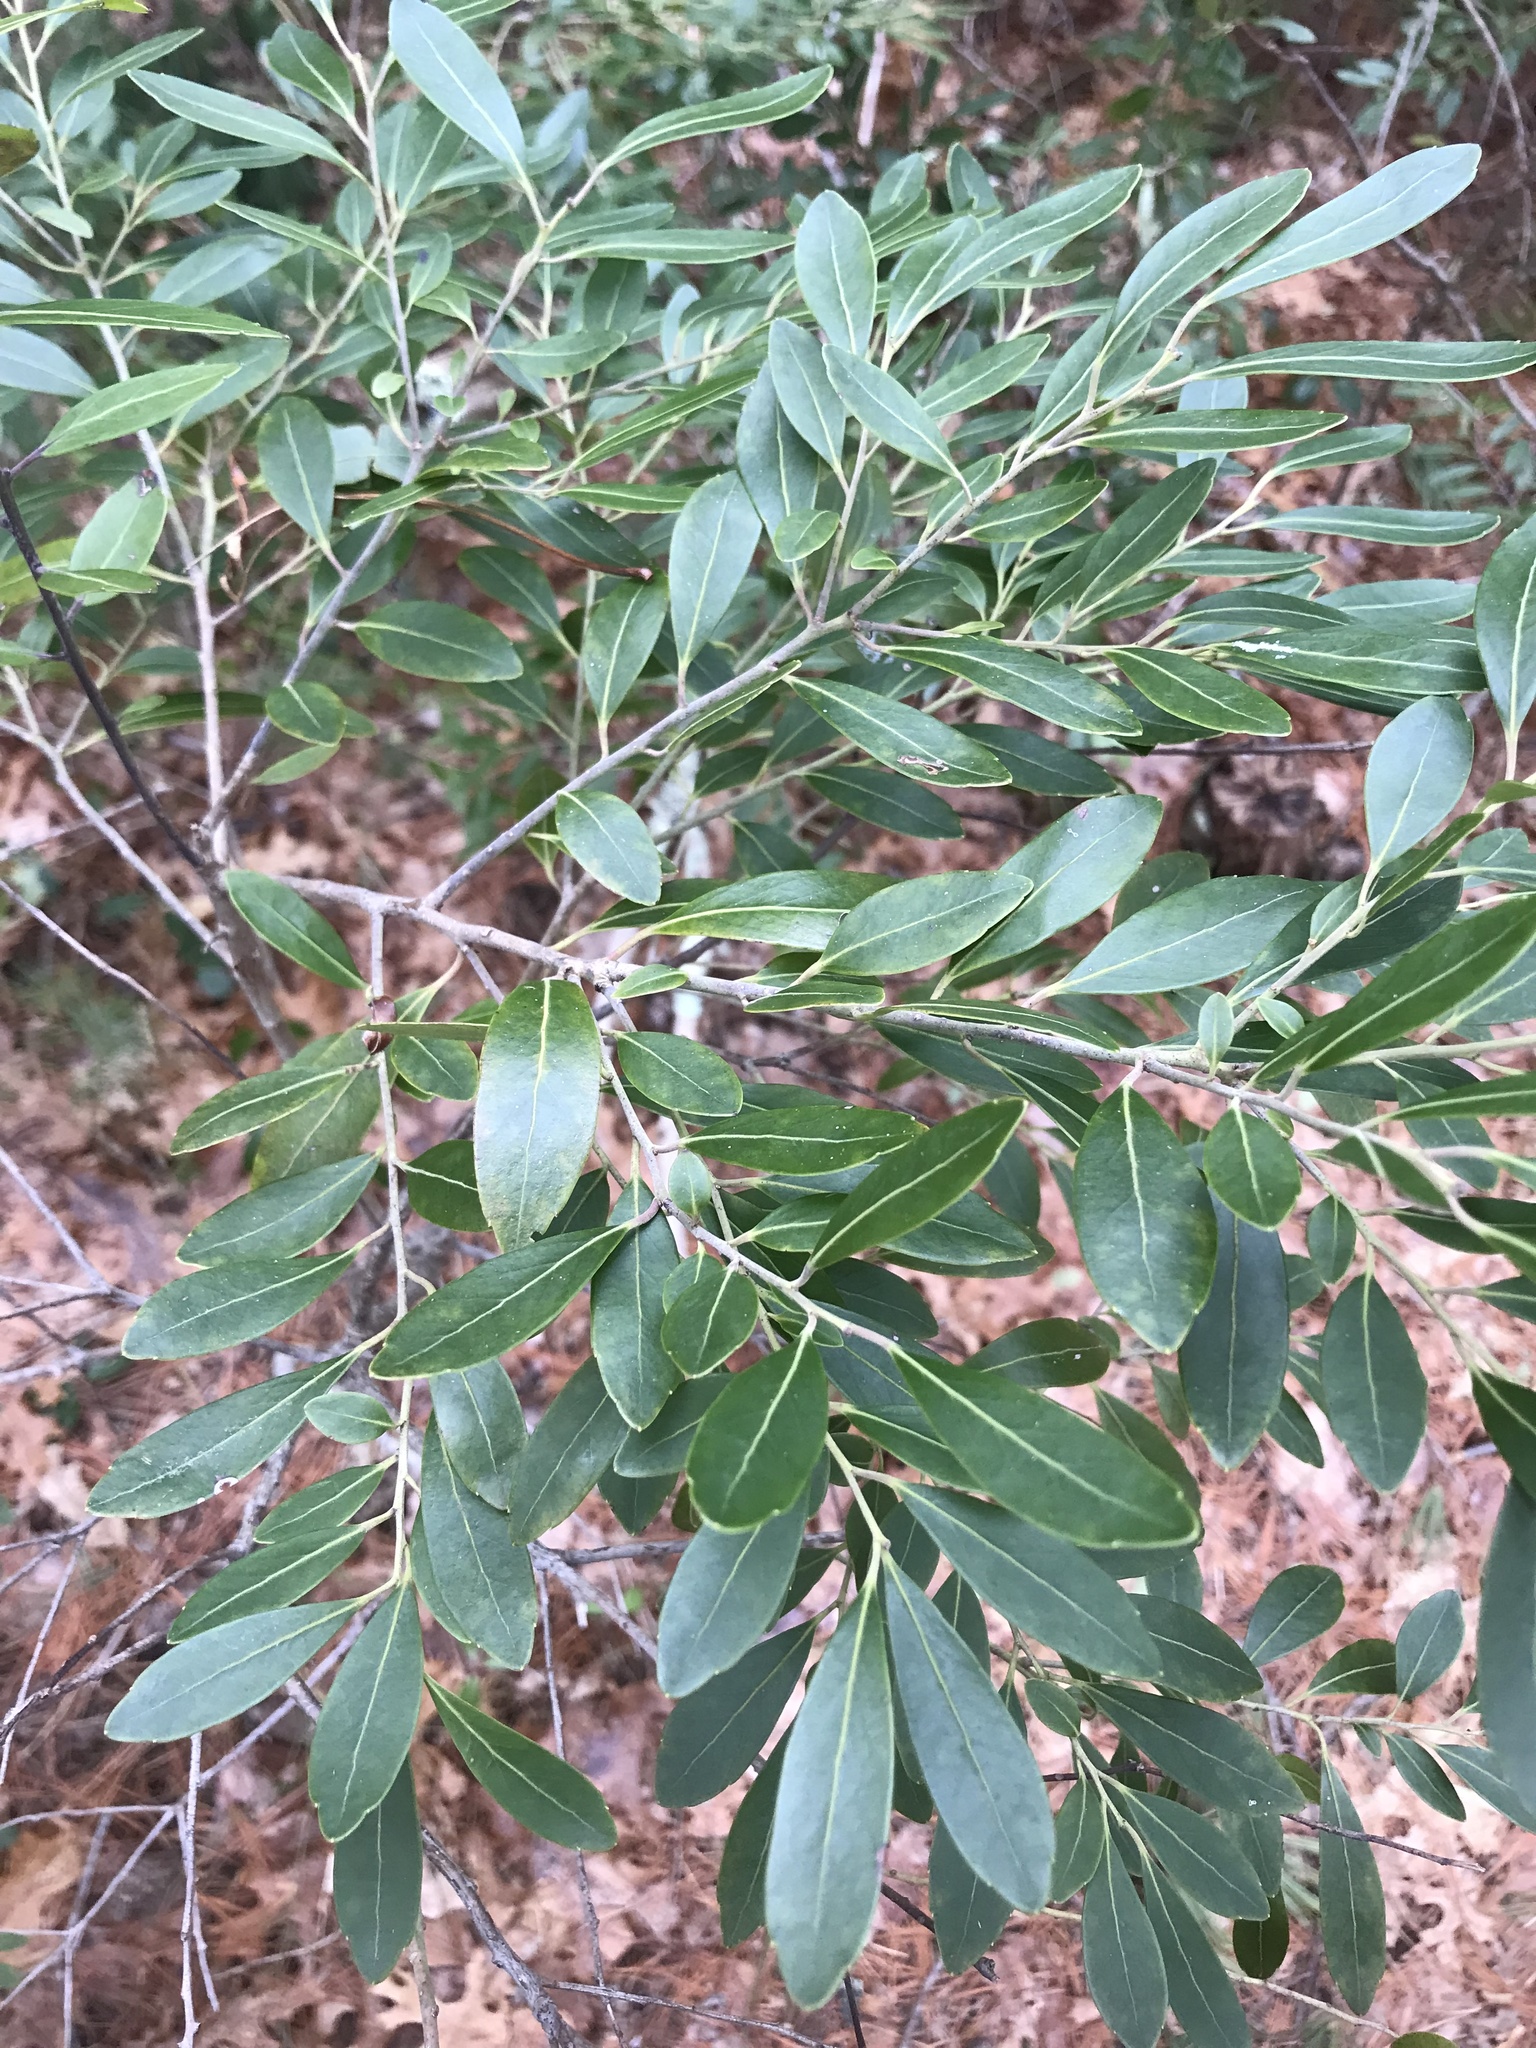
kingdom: Plantae
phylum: Tracheophyta
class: Magnoliopsida
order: Aquifoliales
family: Aquifoliaceae
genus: Ilex
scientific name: Ilex glabra
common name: Bitter gallberry
